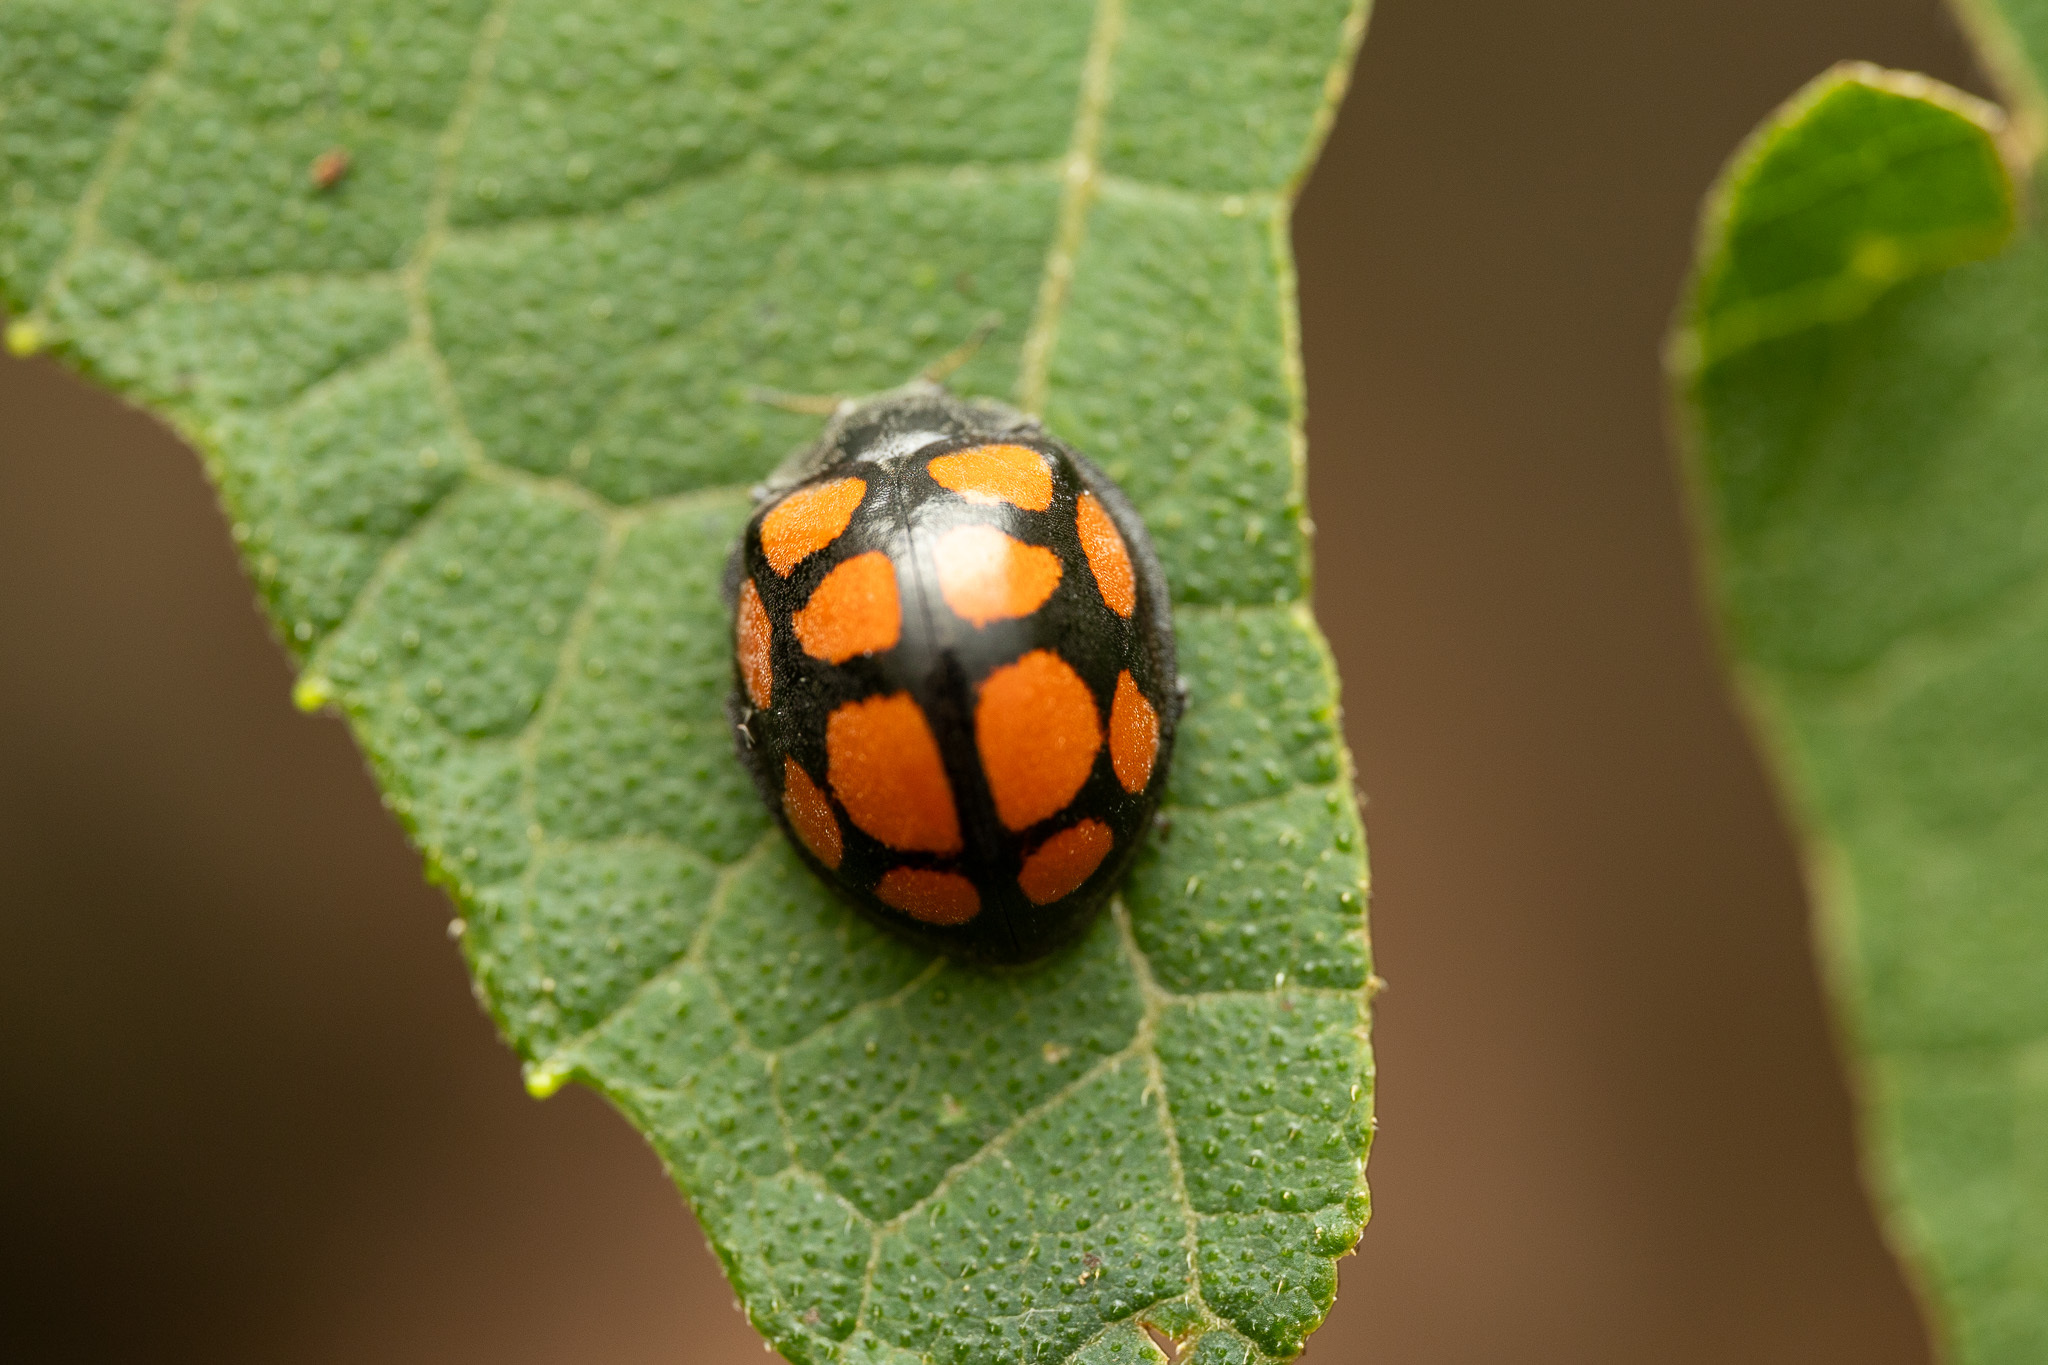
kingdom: Animalia
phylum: Arthropoda
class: Insecta
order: Coleoptera
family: Coccinellidae
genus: Epilachna
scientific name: Epilachna
